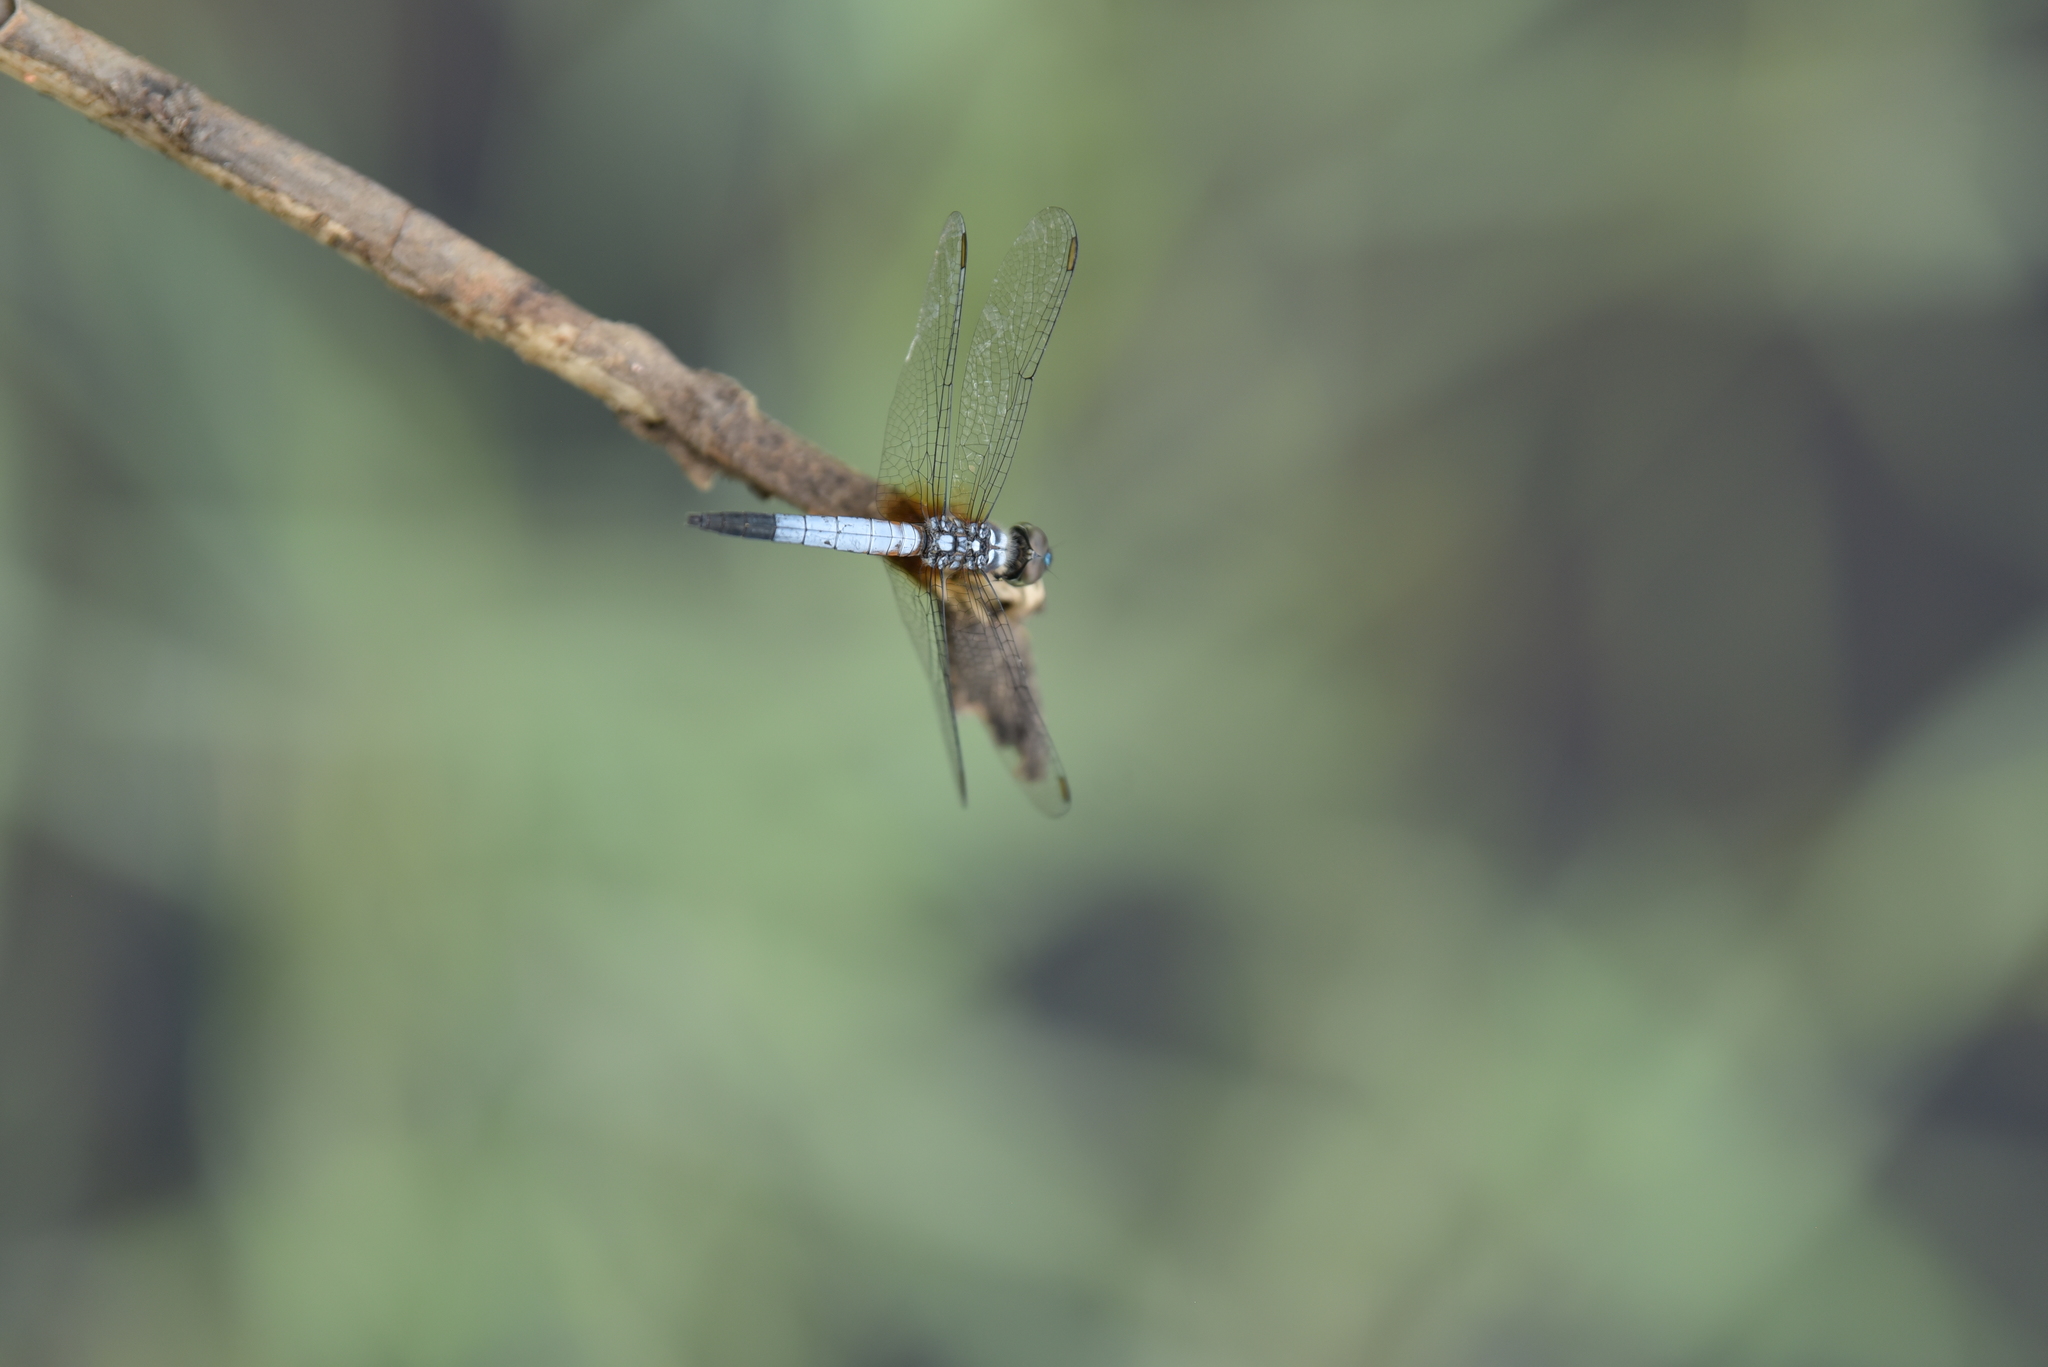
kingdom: Animalia
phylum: Arthropoda
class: Insecta
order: Odonata
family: Libellulidae
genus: Brachydiplax
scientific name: Brachydiplax chalybea
